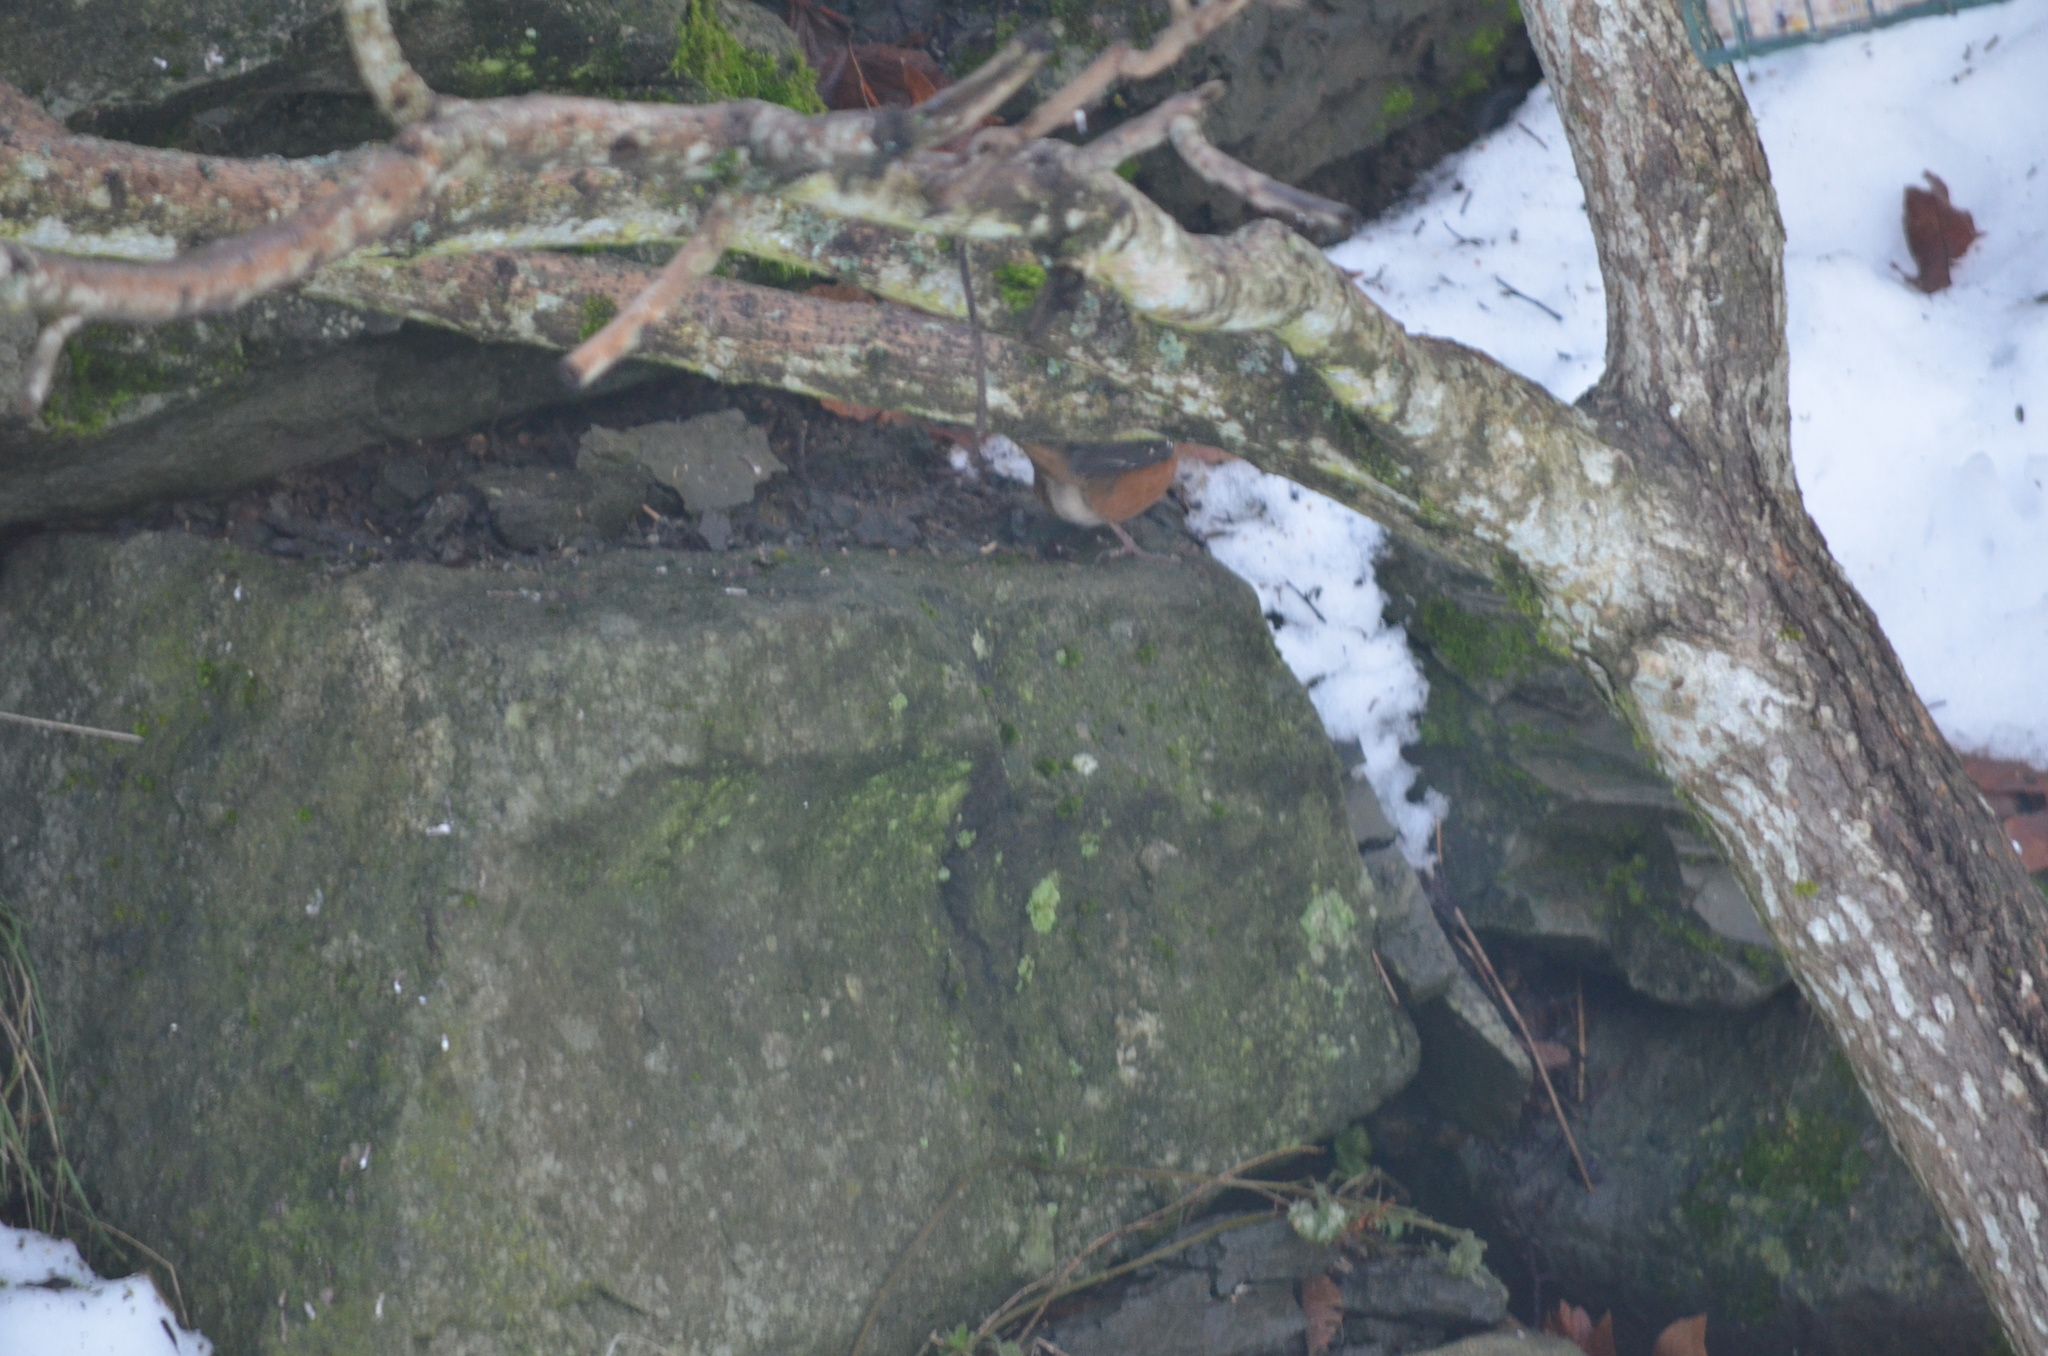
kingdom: Animalia
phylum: Chordata
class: Aves
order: Passeriformes
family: Passerellidae
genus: Pipilo
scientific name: Pipilo maculatus
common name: Spotted towhee
